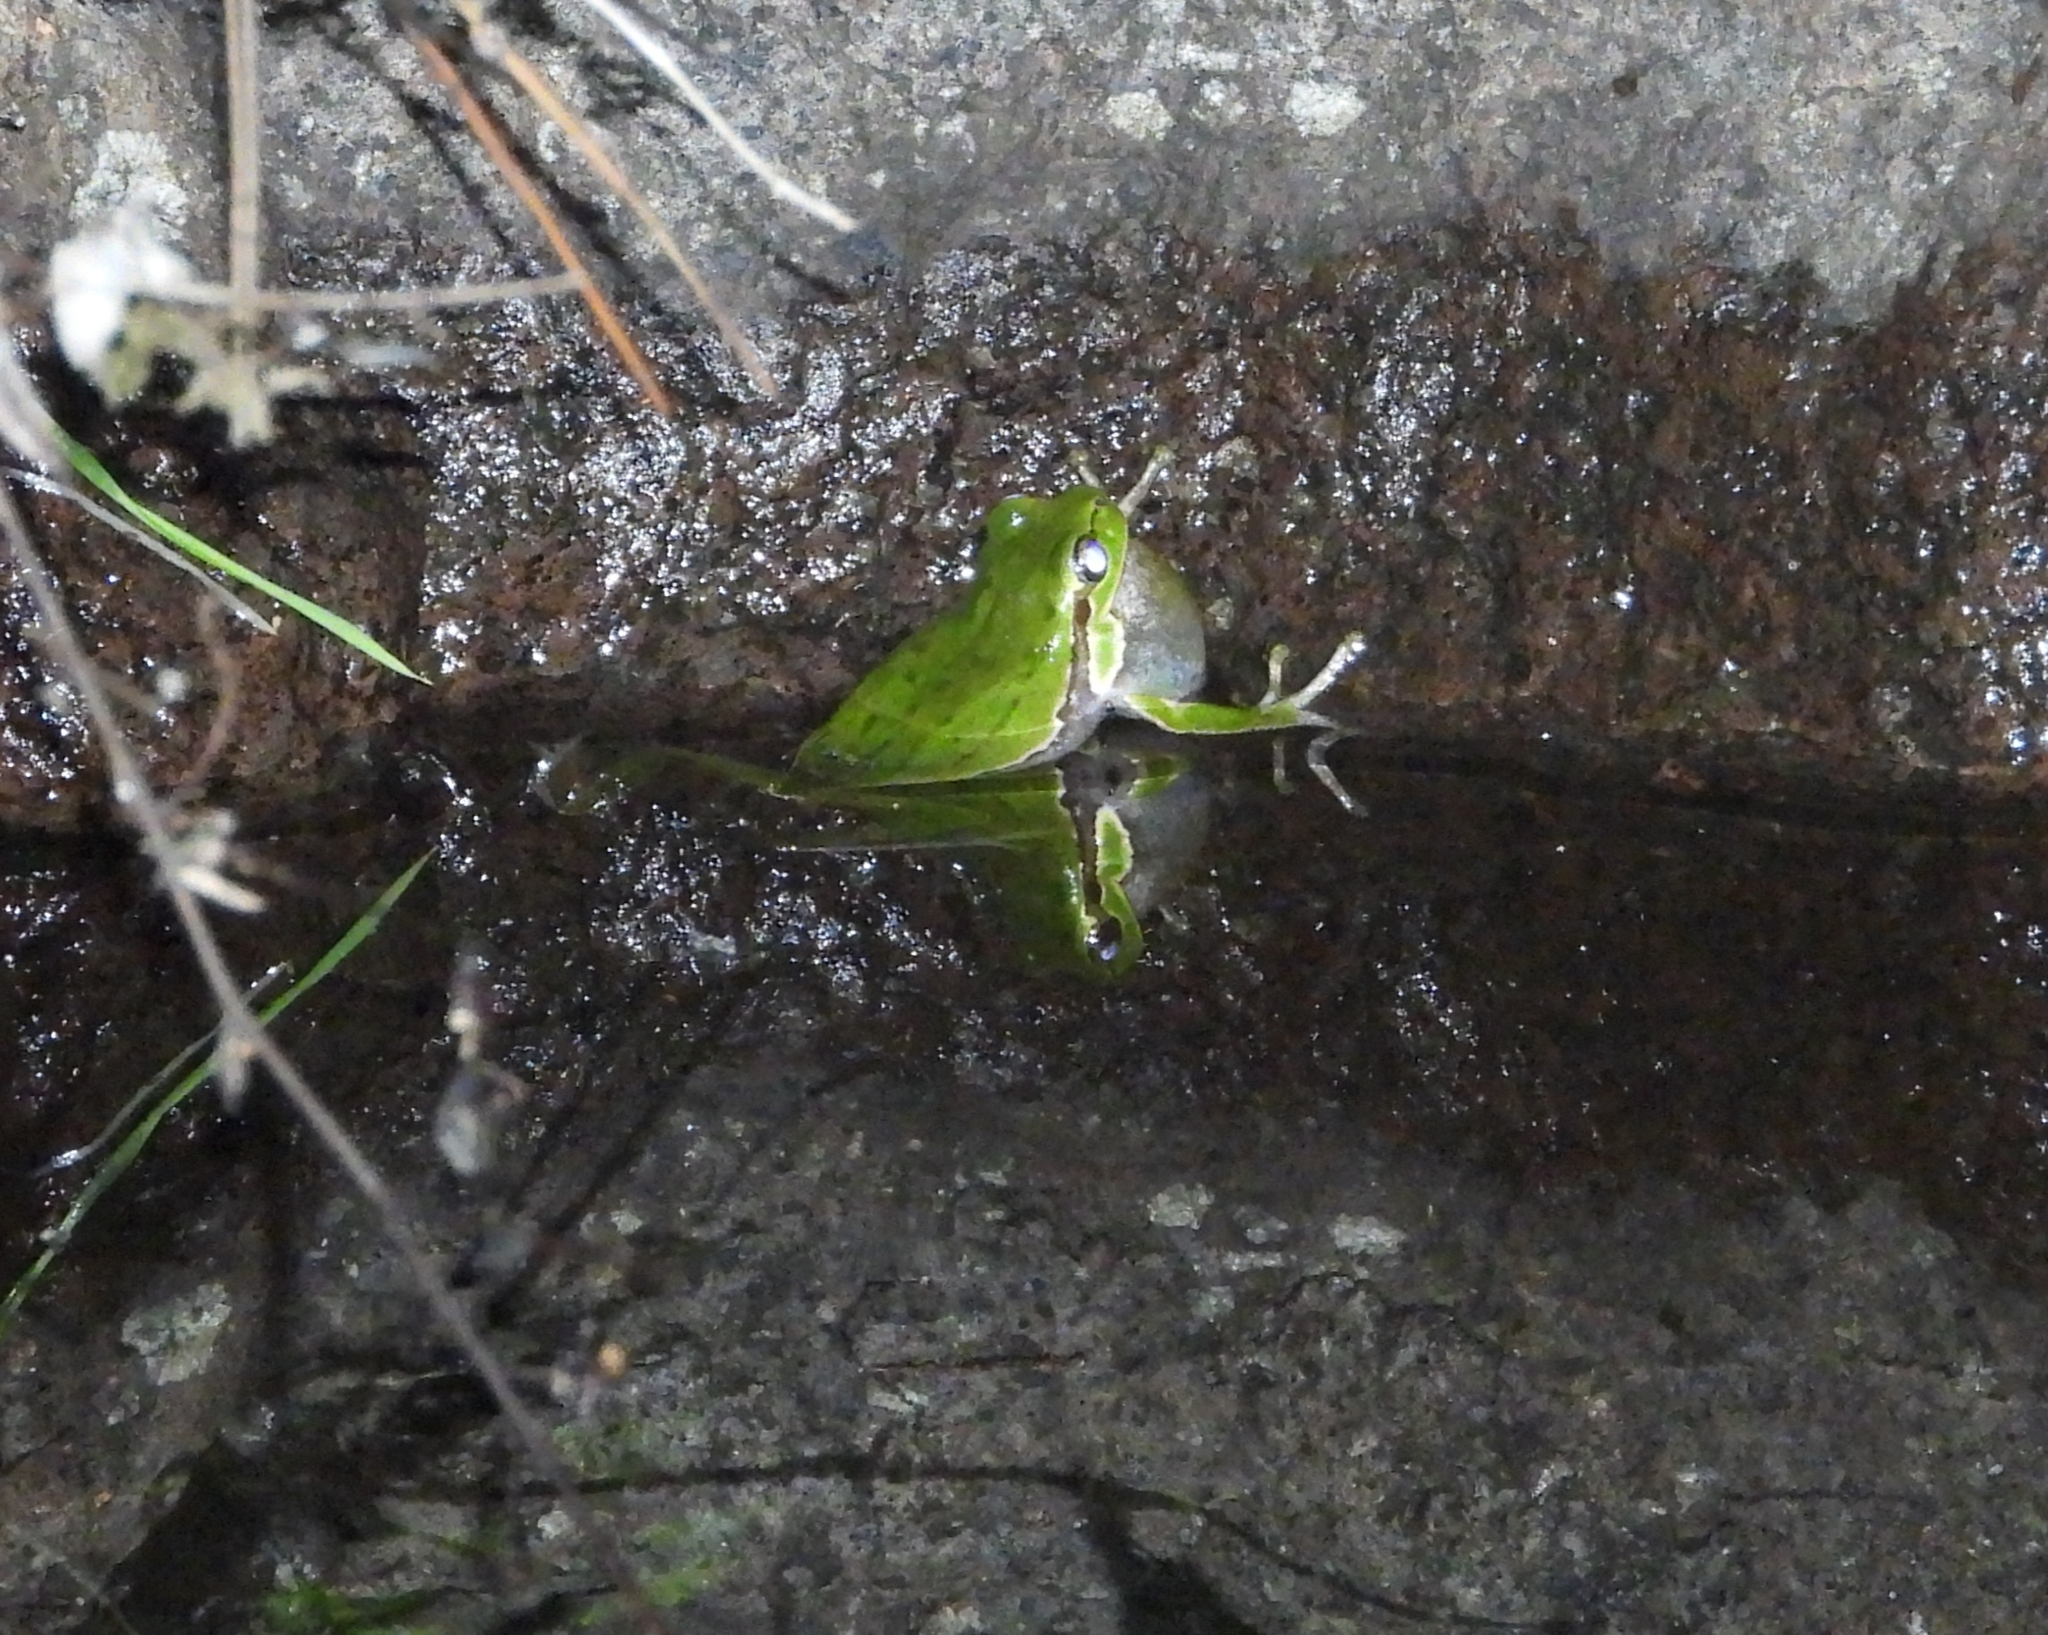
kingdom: Animalia
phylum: Chordata
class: Amphibia
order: Anura
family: Hylidae
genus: Hyla
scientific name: Hyla sarda
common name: Sardinian tree frog
